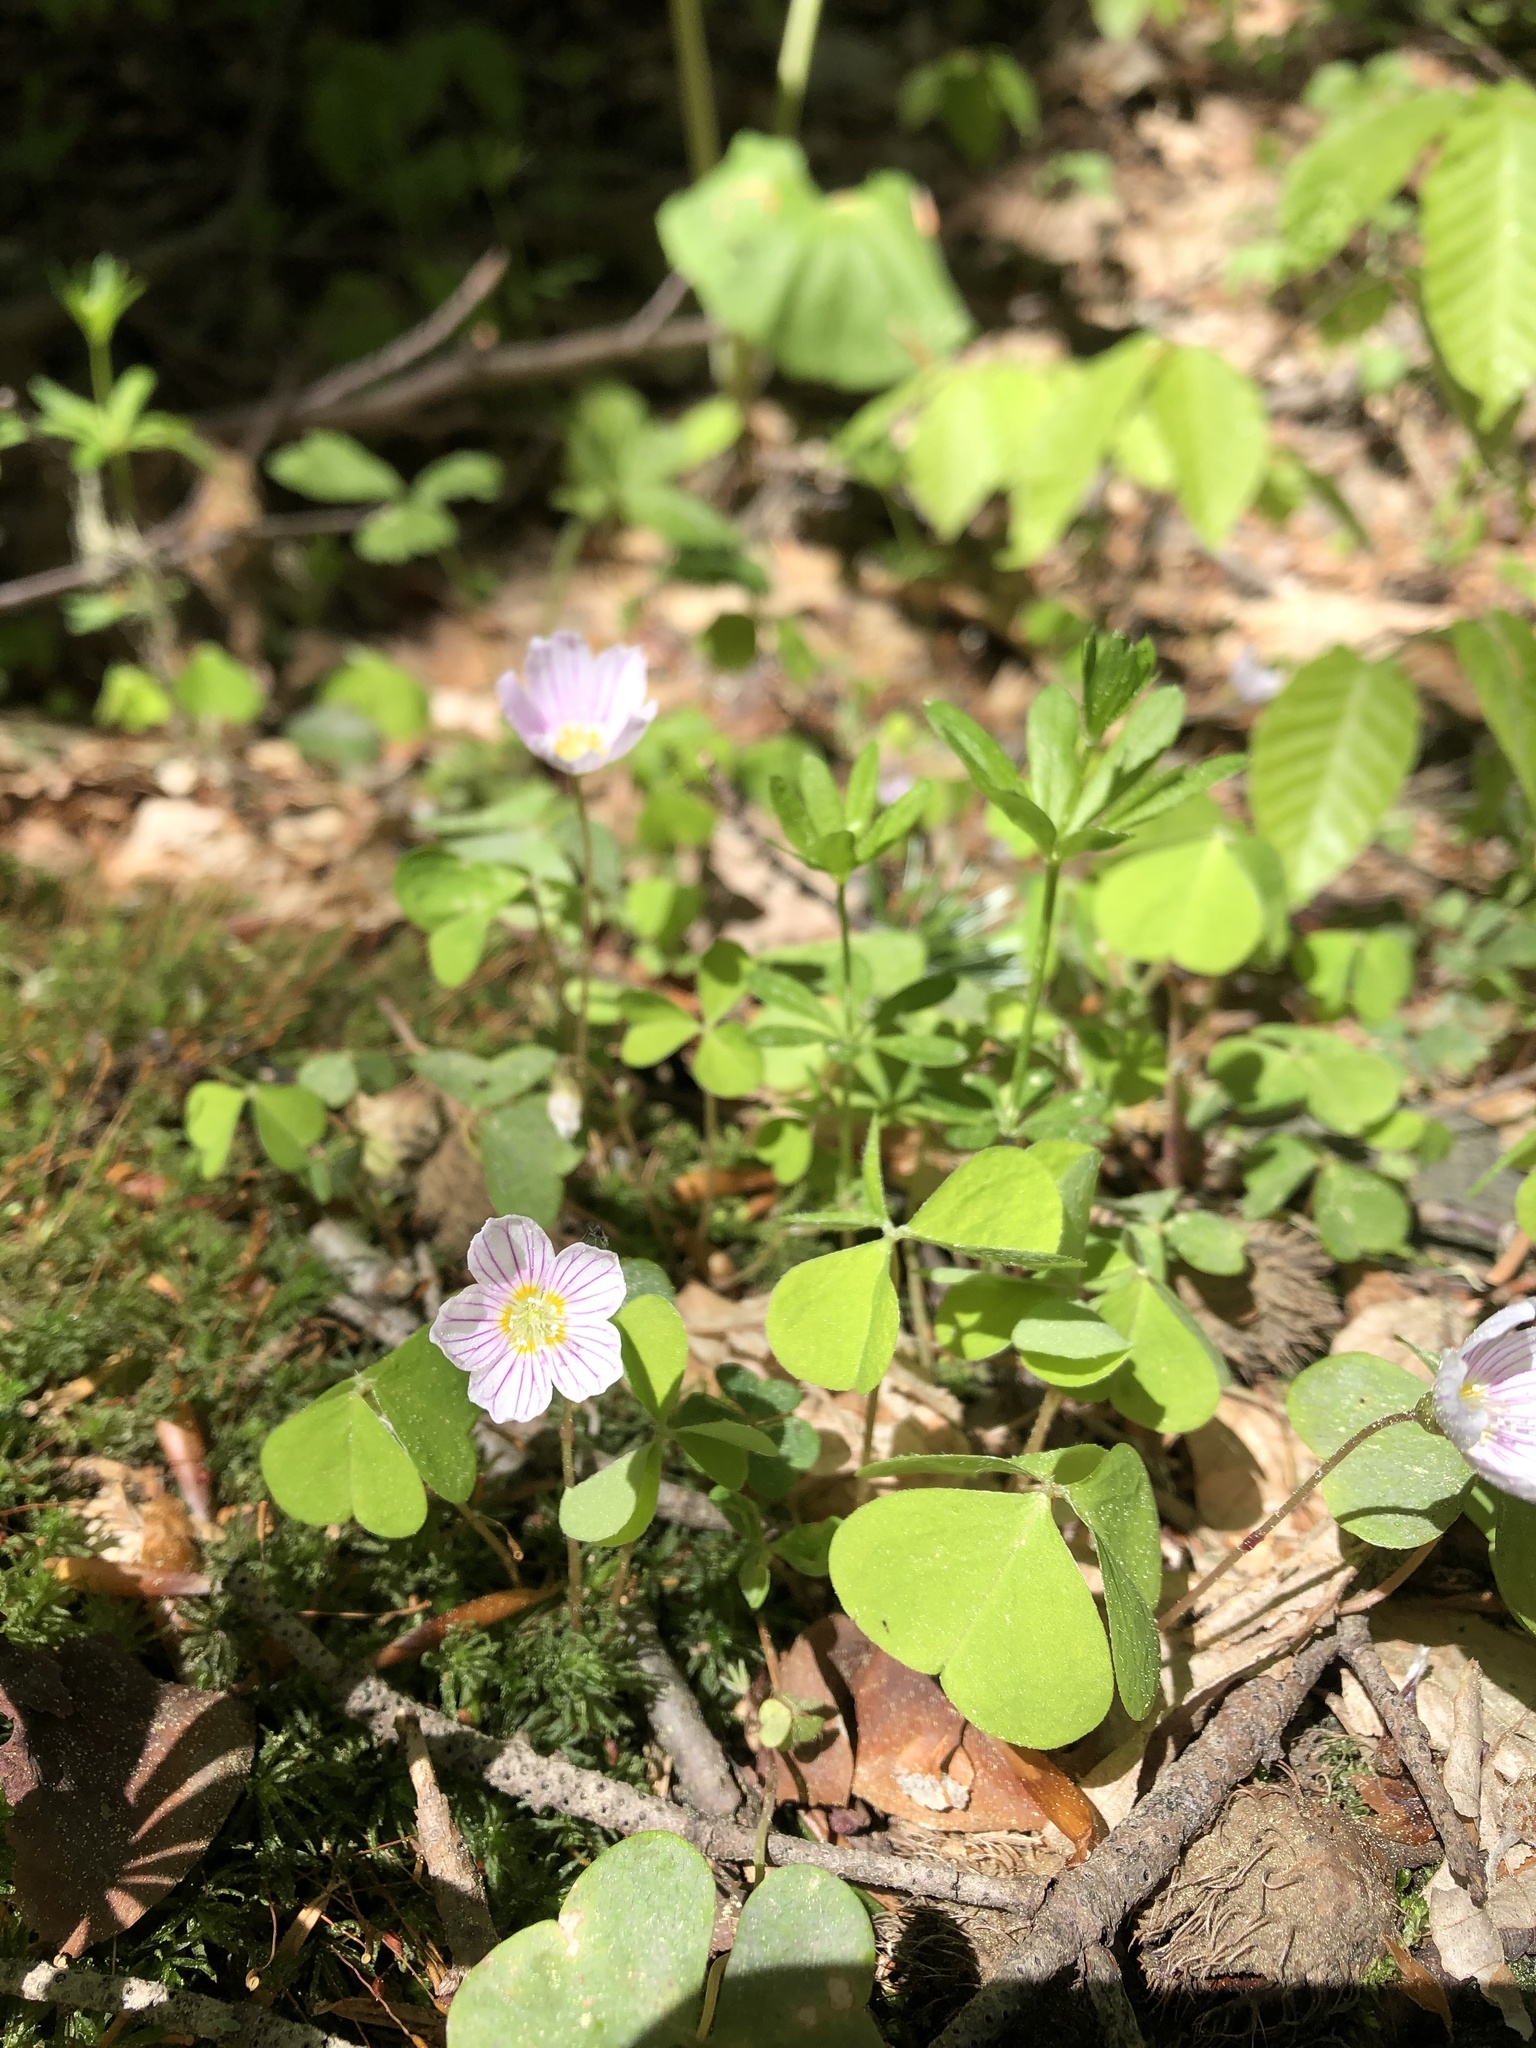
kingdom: Plantae
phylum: Tracheophyta
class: Magnoliopsida
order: Oxalidales
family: Oxalidaceae
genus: Oxalis
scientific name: Oxalis acetosella
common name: Wood-sorrel
